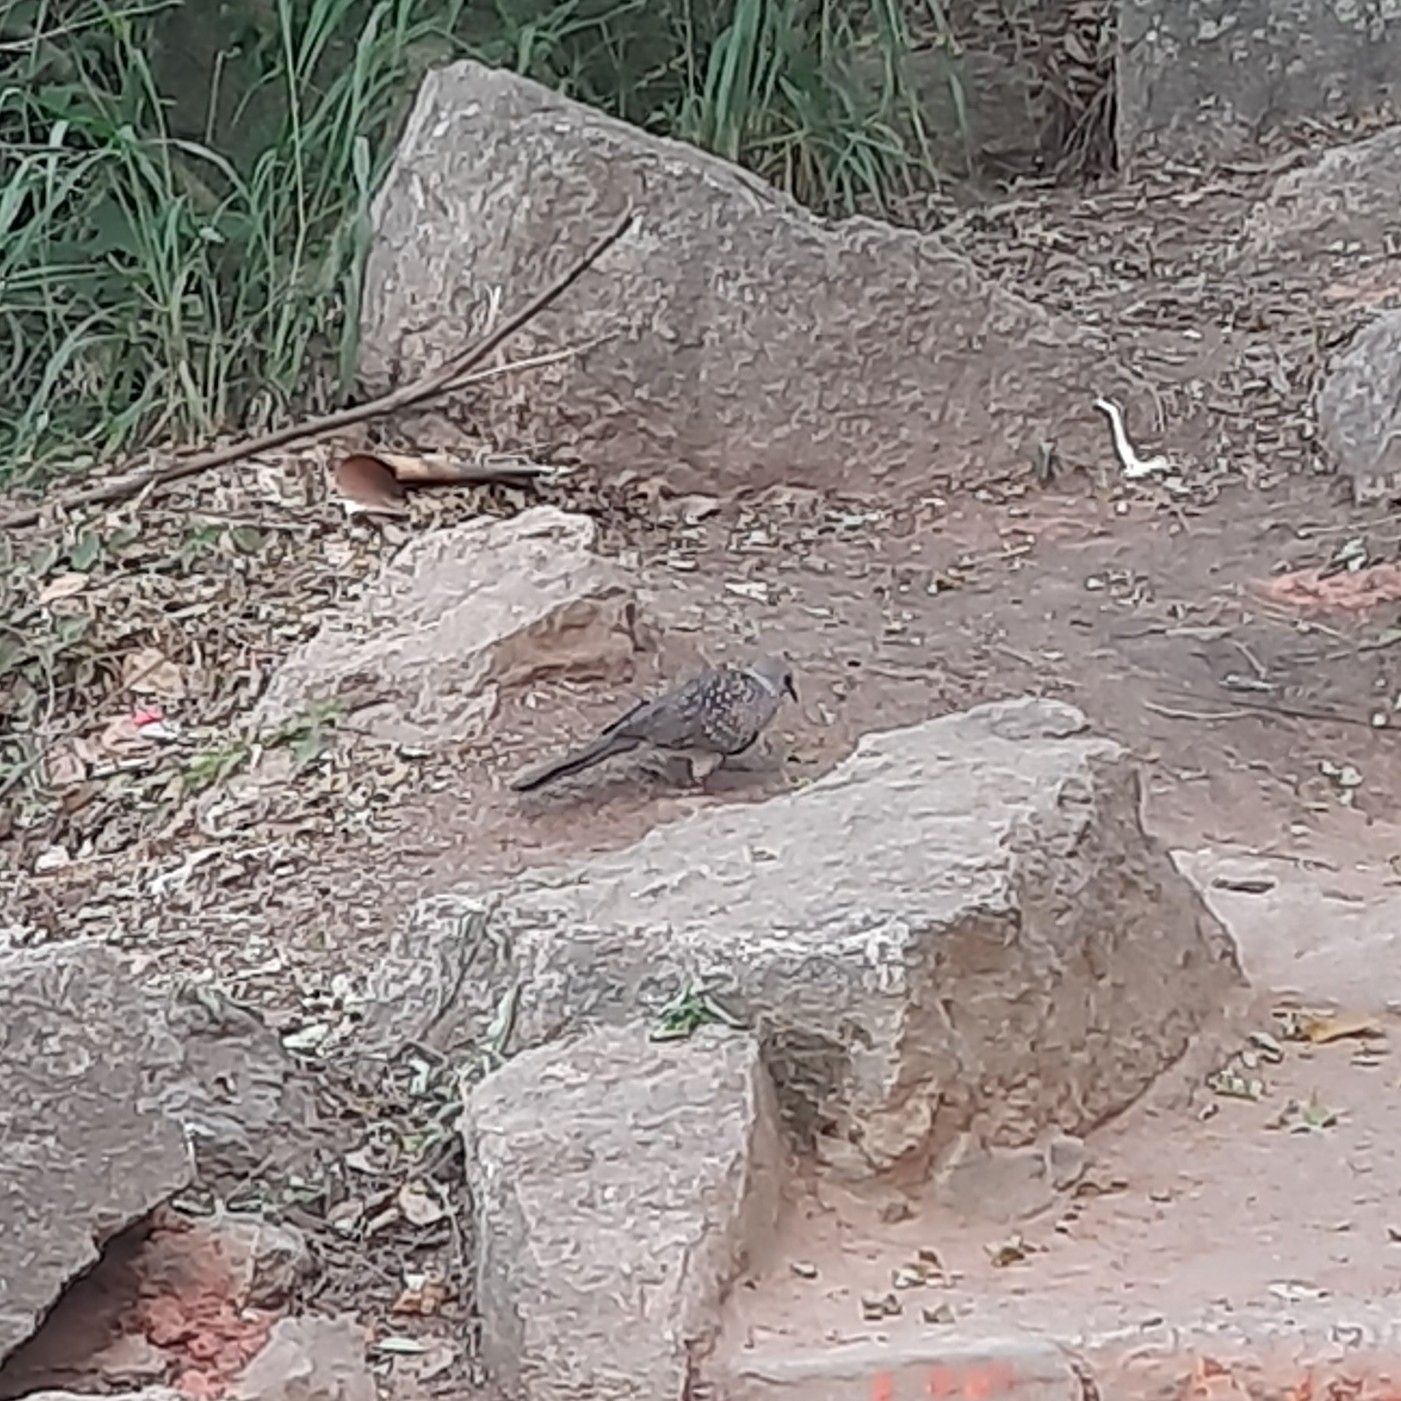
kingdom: Animalia
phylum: Chordata
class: Aves
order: Columbiformes
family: Columbidae
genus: Spilopelia
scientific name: Spilopelia chinensis
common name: Spotted dove
